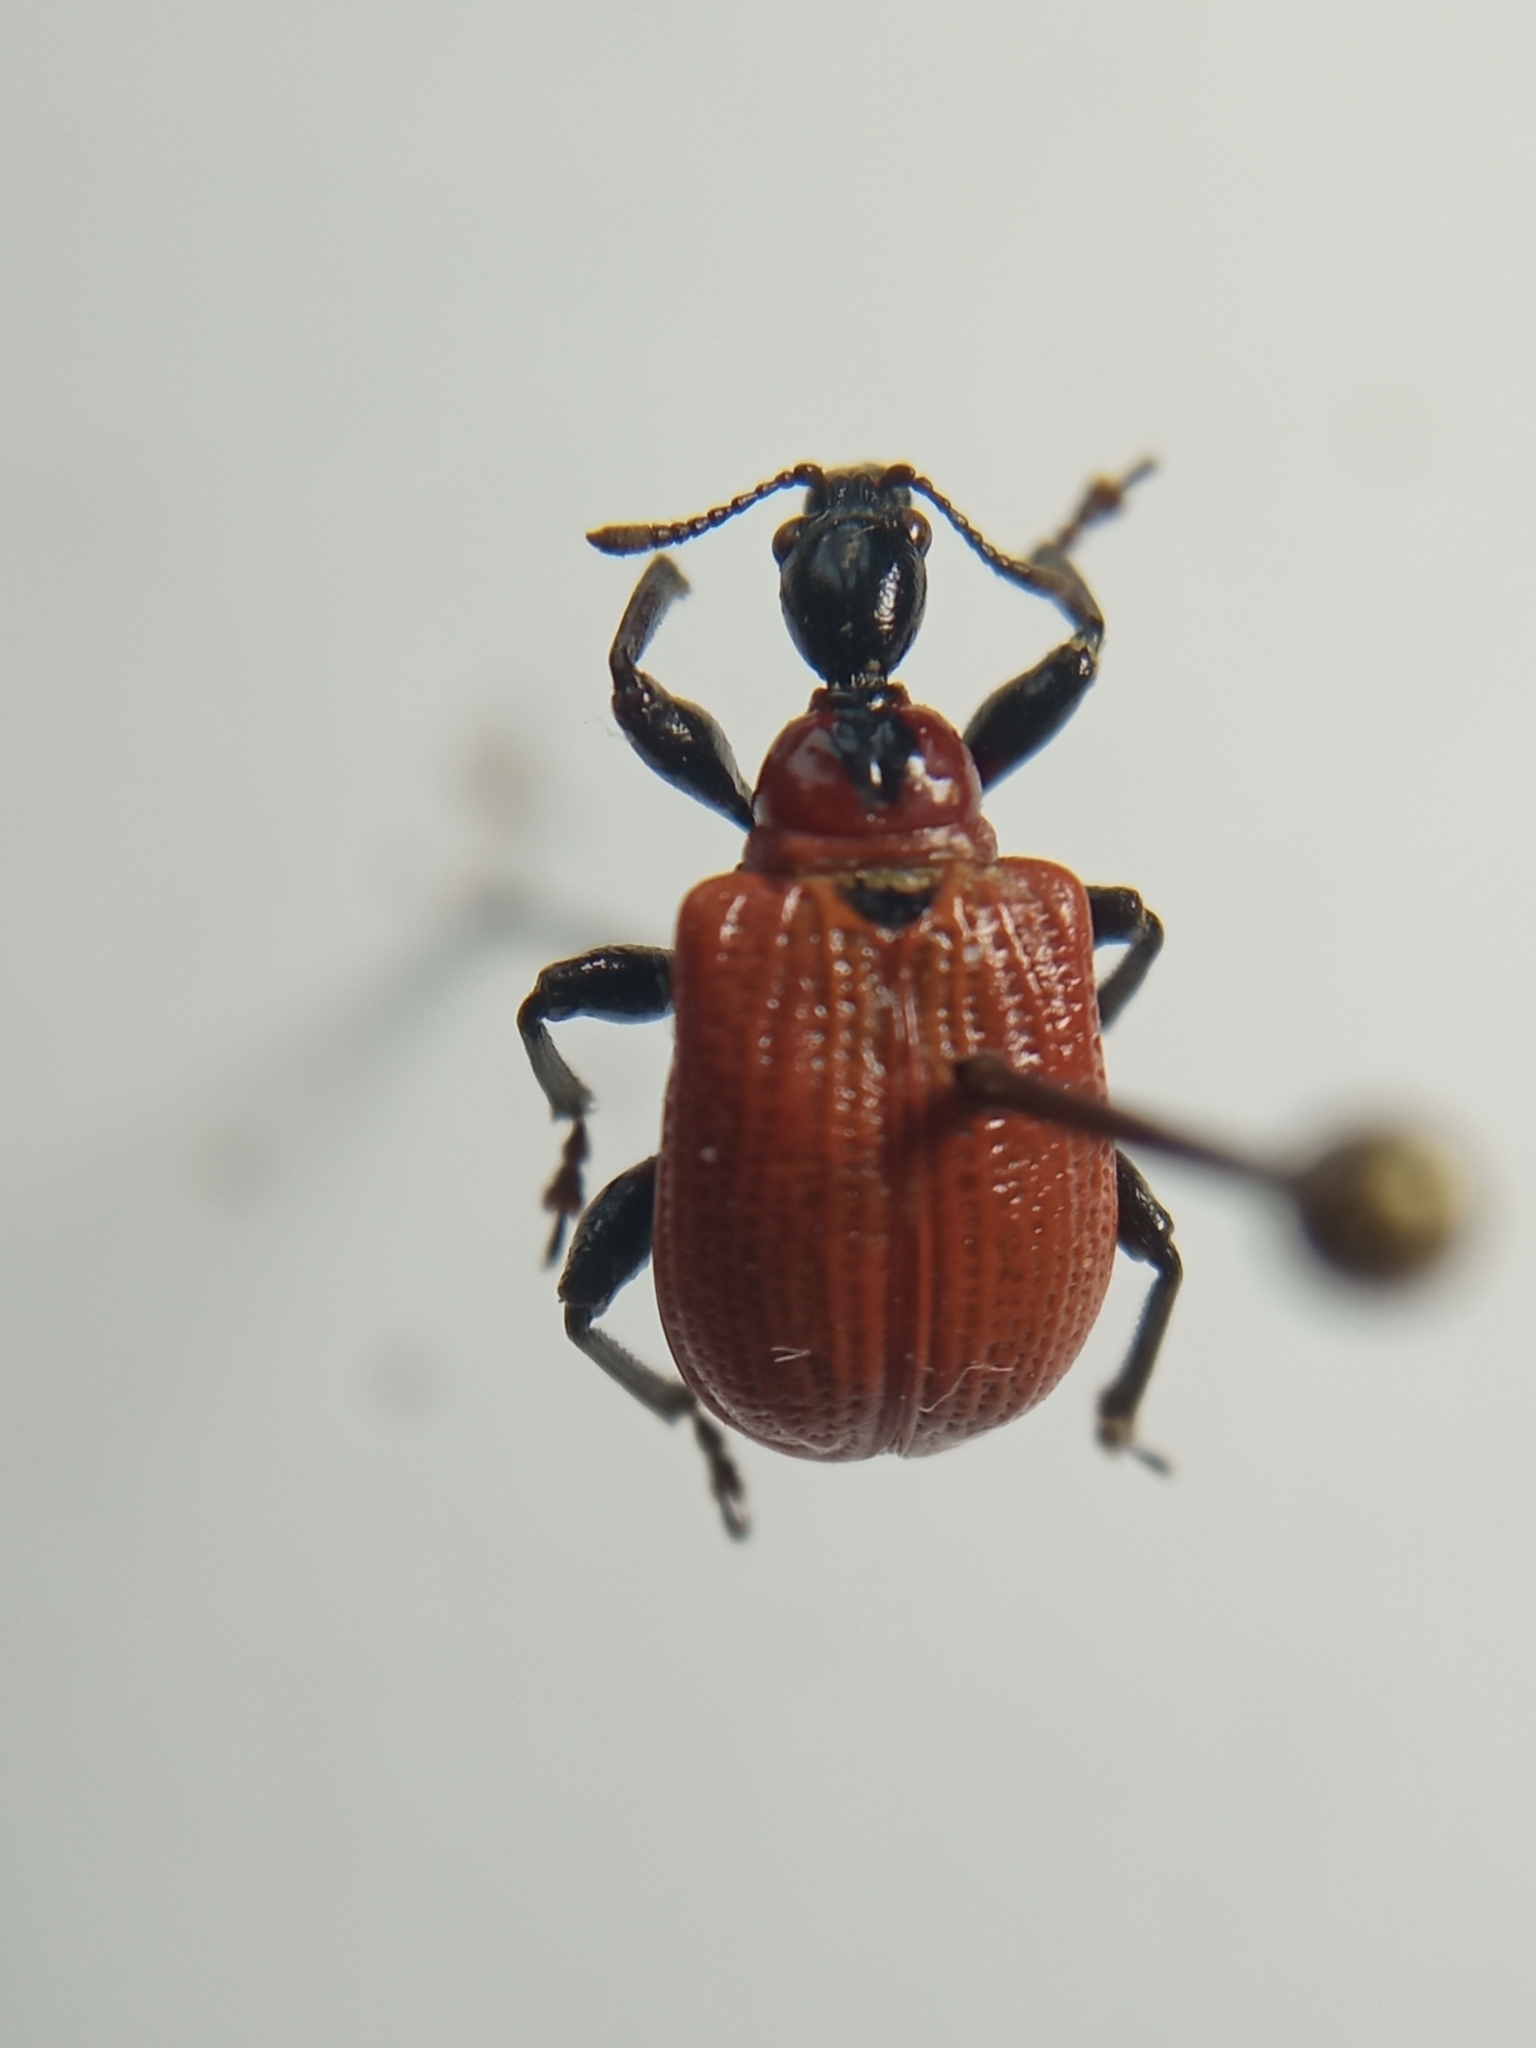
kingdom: Animalia
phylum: Arthropoda
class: Insecta
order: Coleoptera
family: Attelabidae
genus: Apoderus
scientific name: Apoderus coryli
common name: Hazel leaf roller
